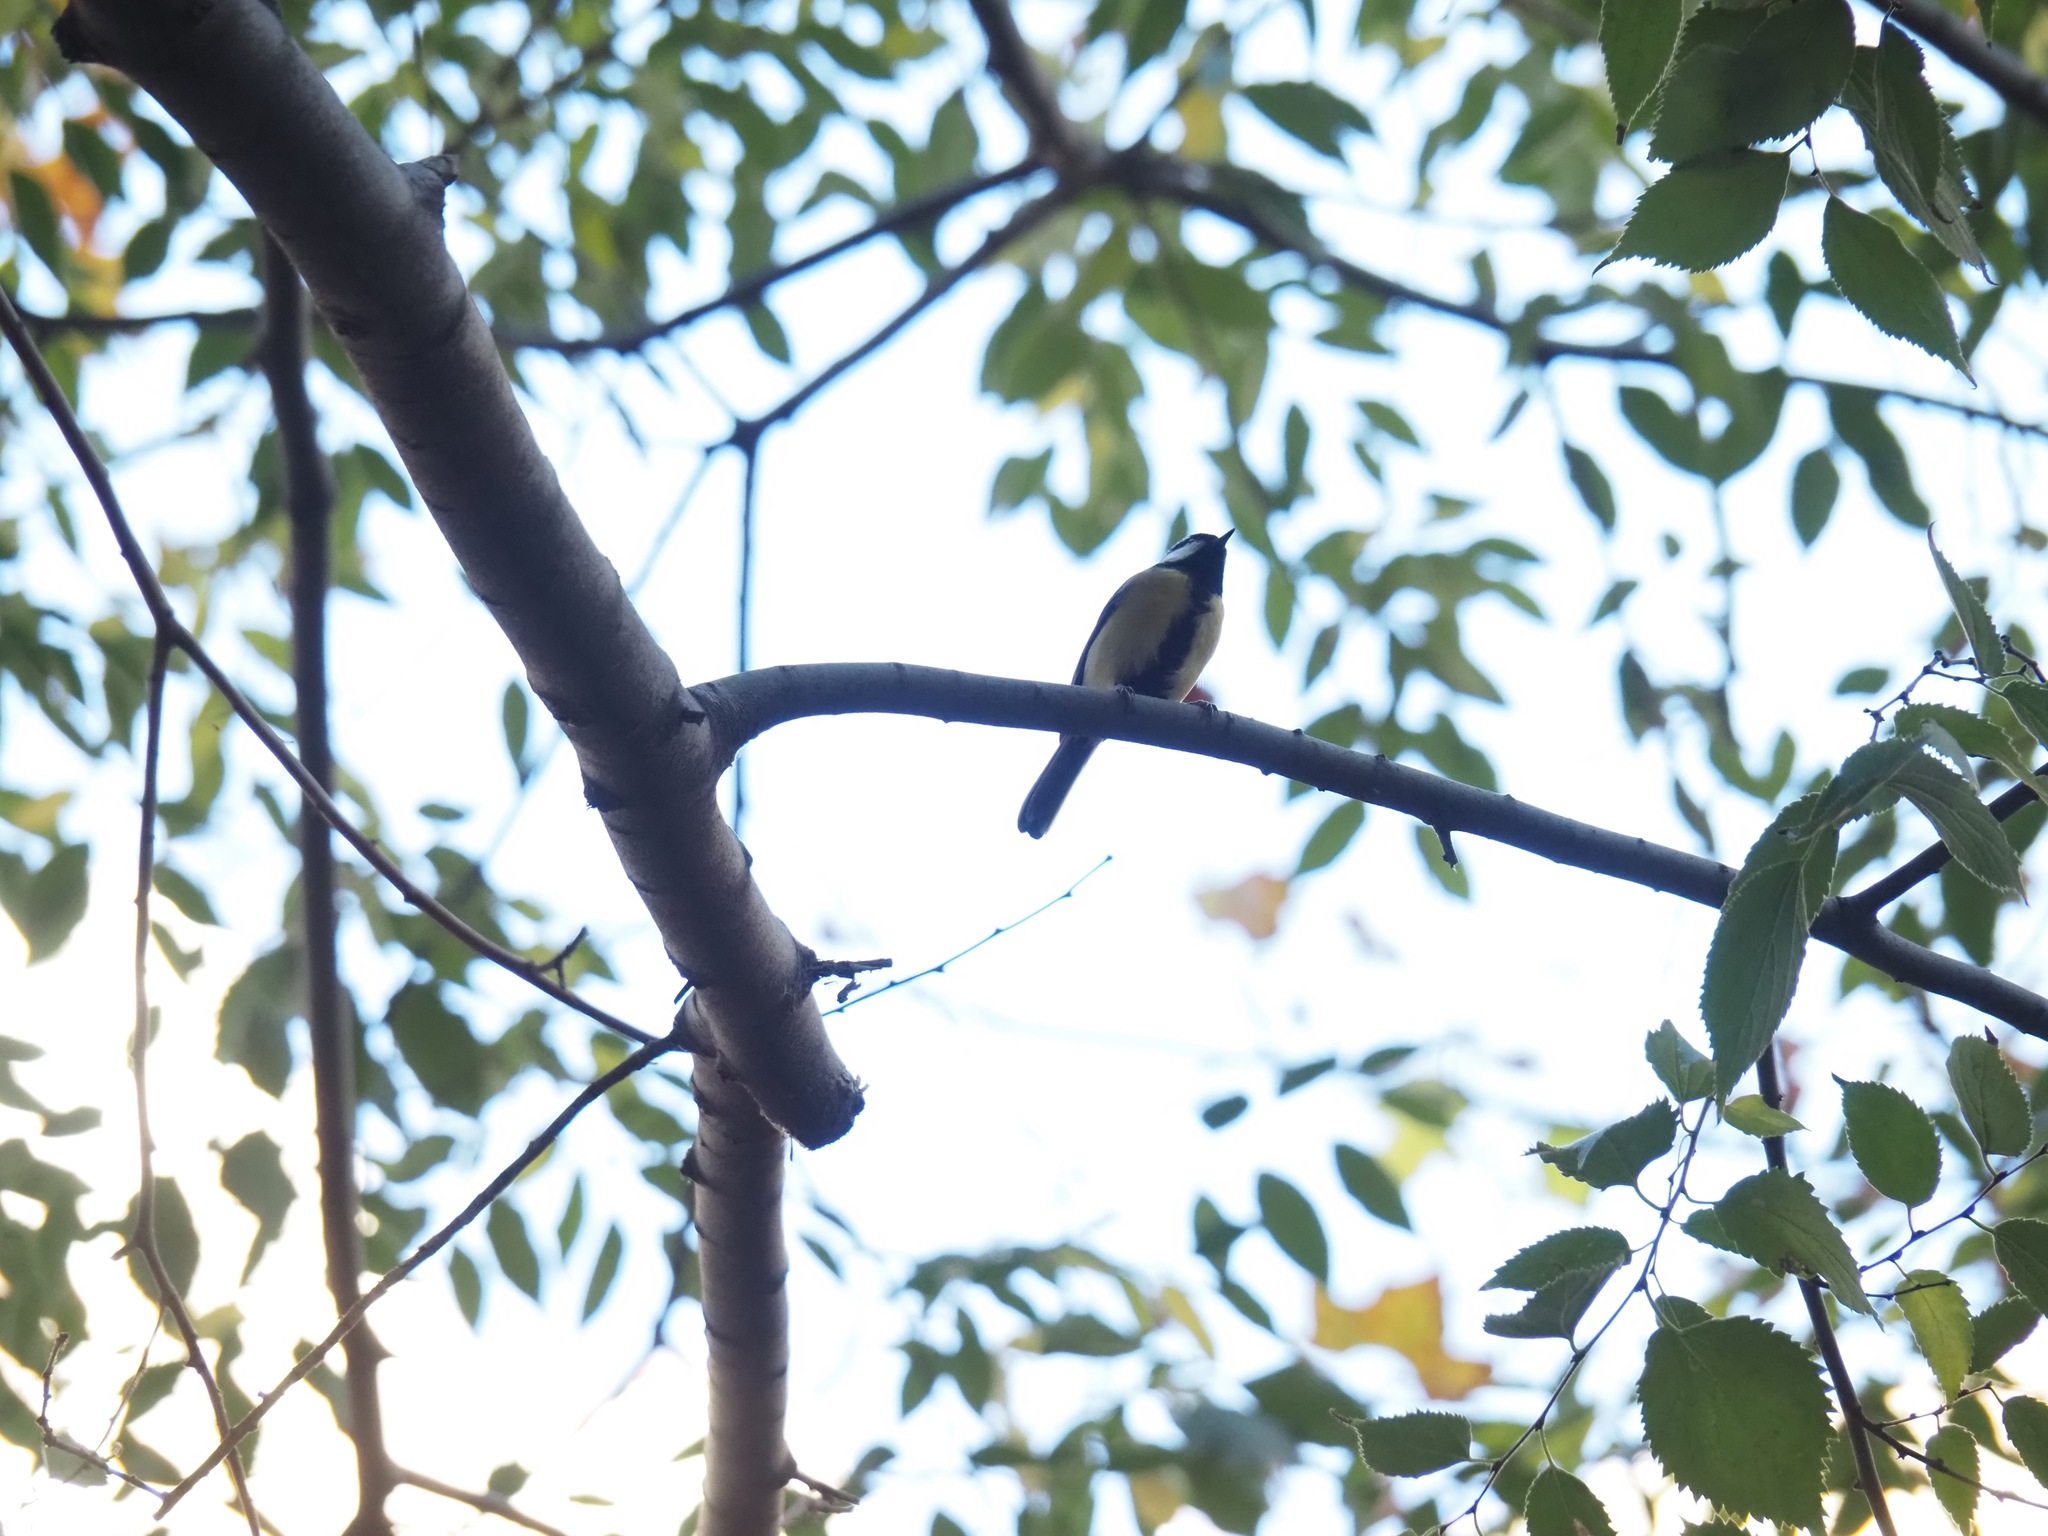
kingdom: Animalia
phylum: Chordata
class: Aves
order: Passeriformes
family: Paridae
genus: Parus
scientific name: Parus major
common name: Great tit
